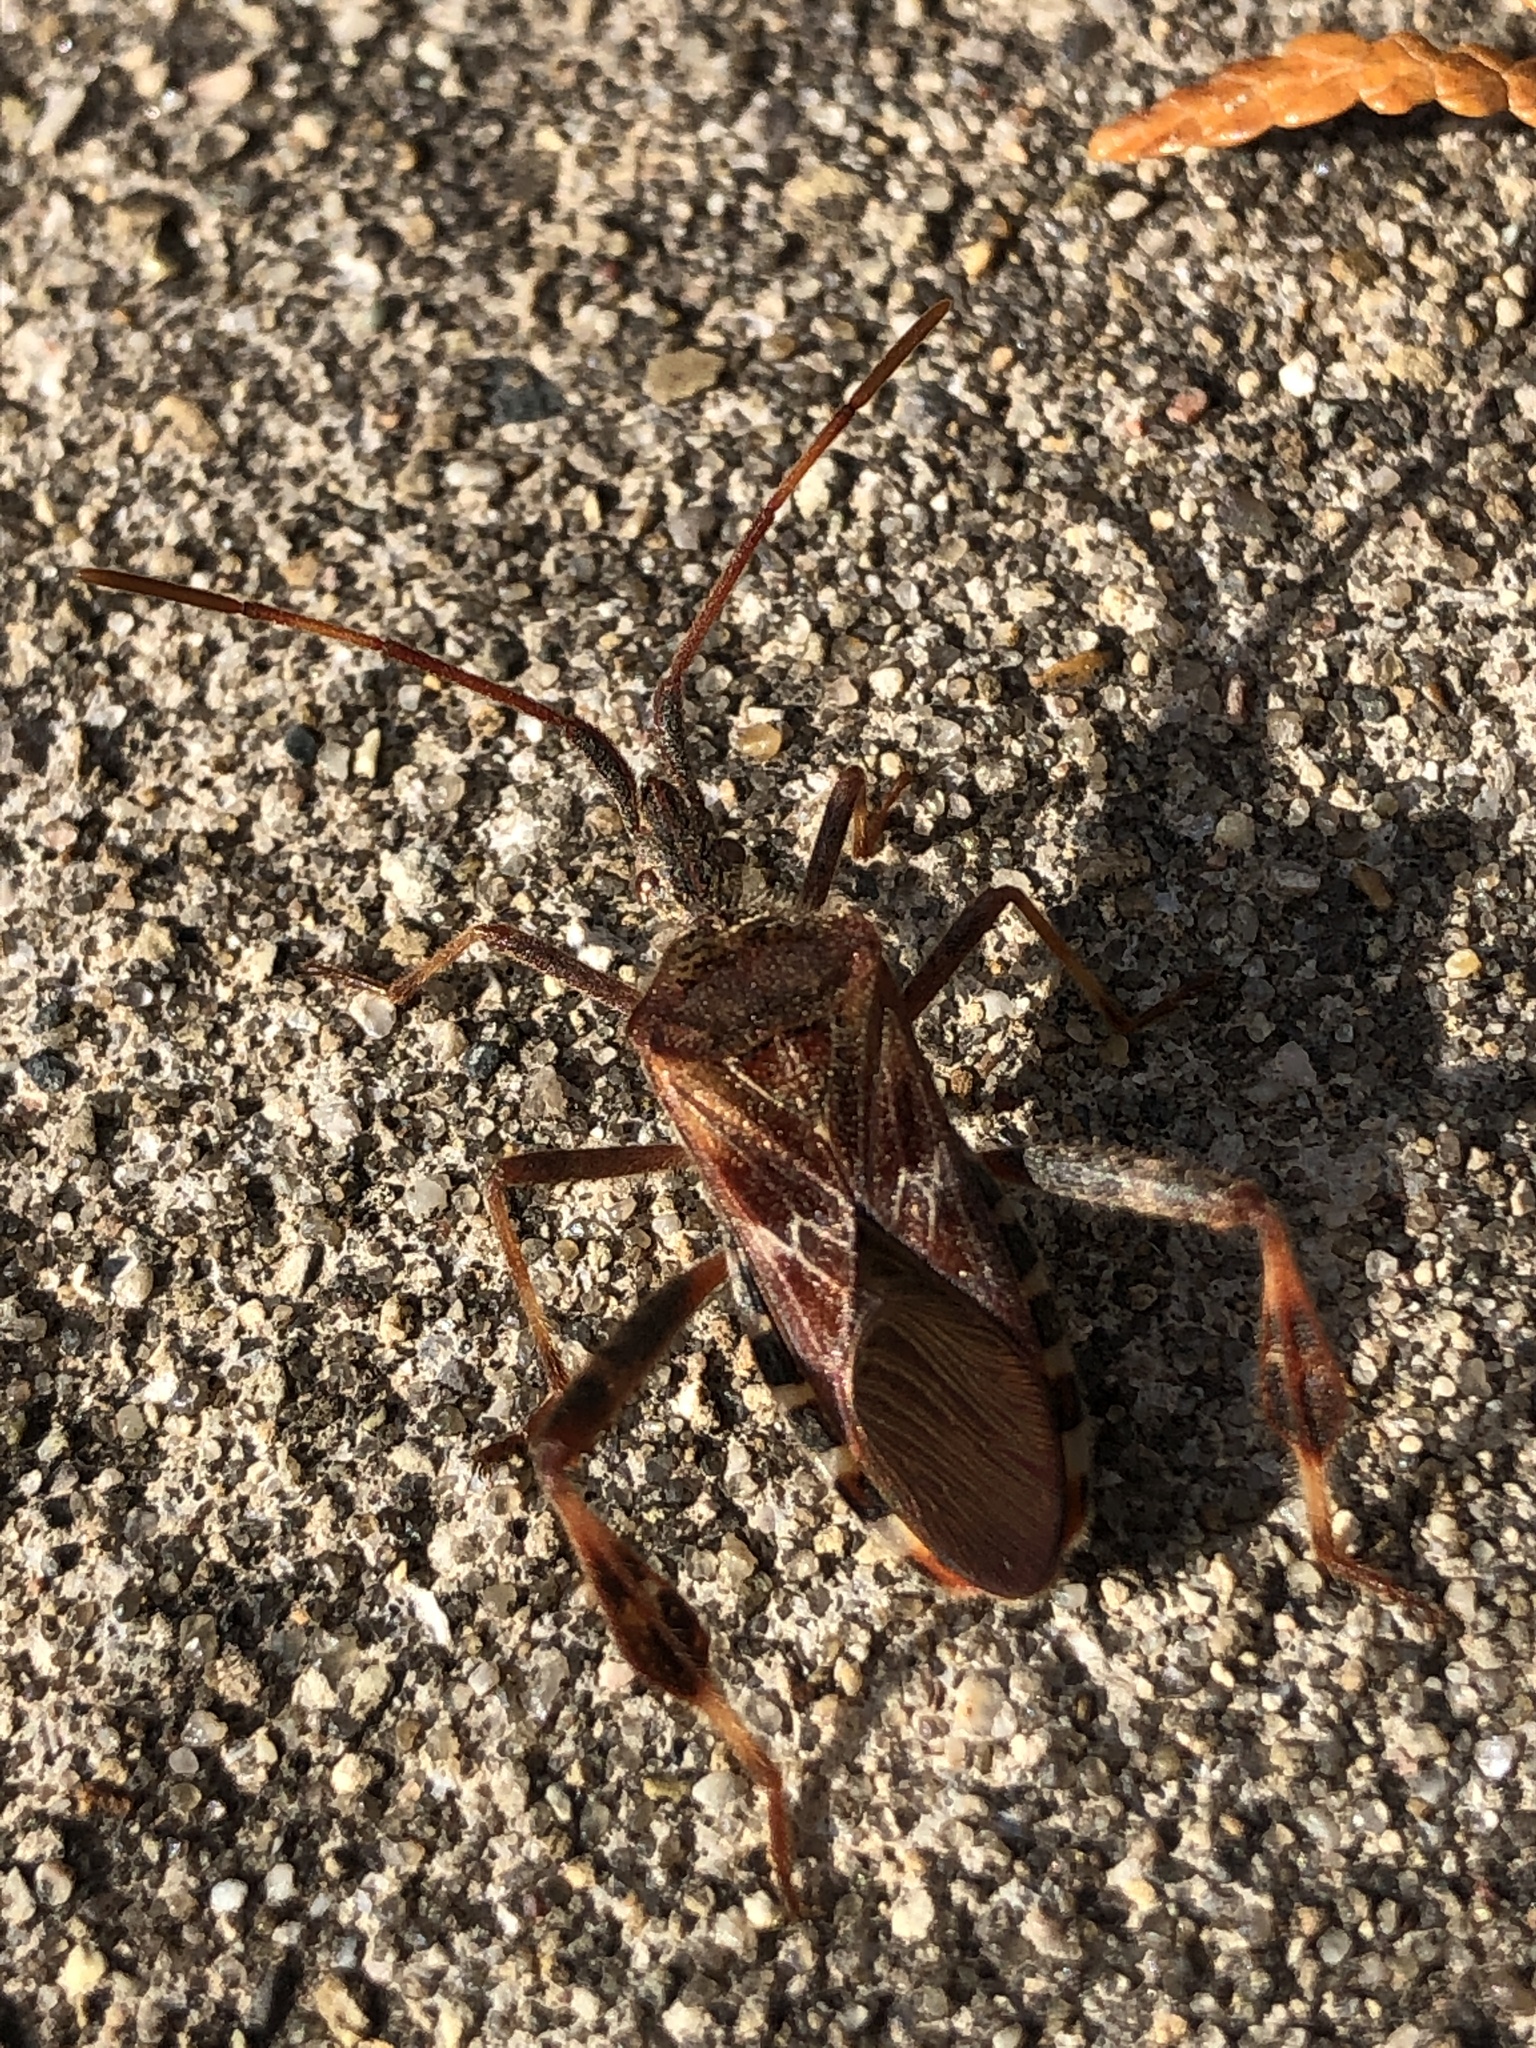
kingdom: Animalia
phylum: Arthropoda
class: Insecta
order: Hemiptera
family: Coreidae
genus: Leptoglossus
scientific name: Leptoglossus occidentalis
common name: Western conifer-seed bug
